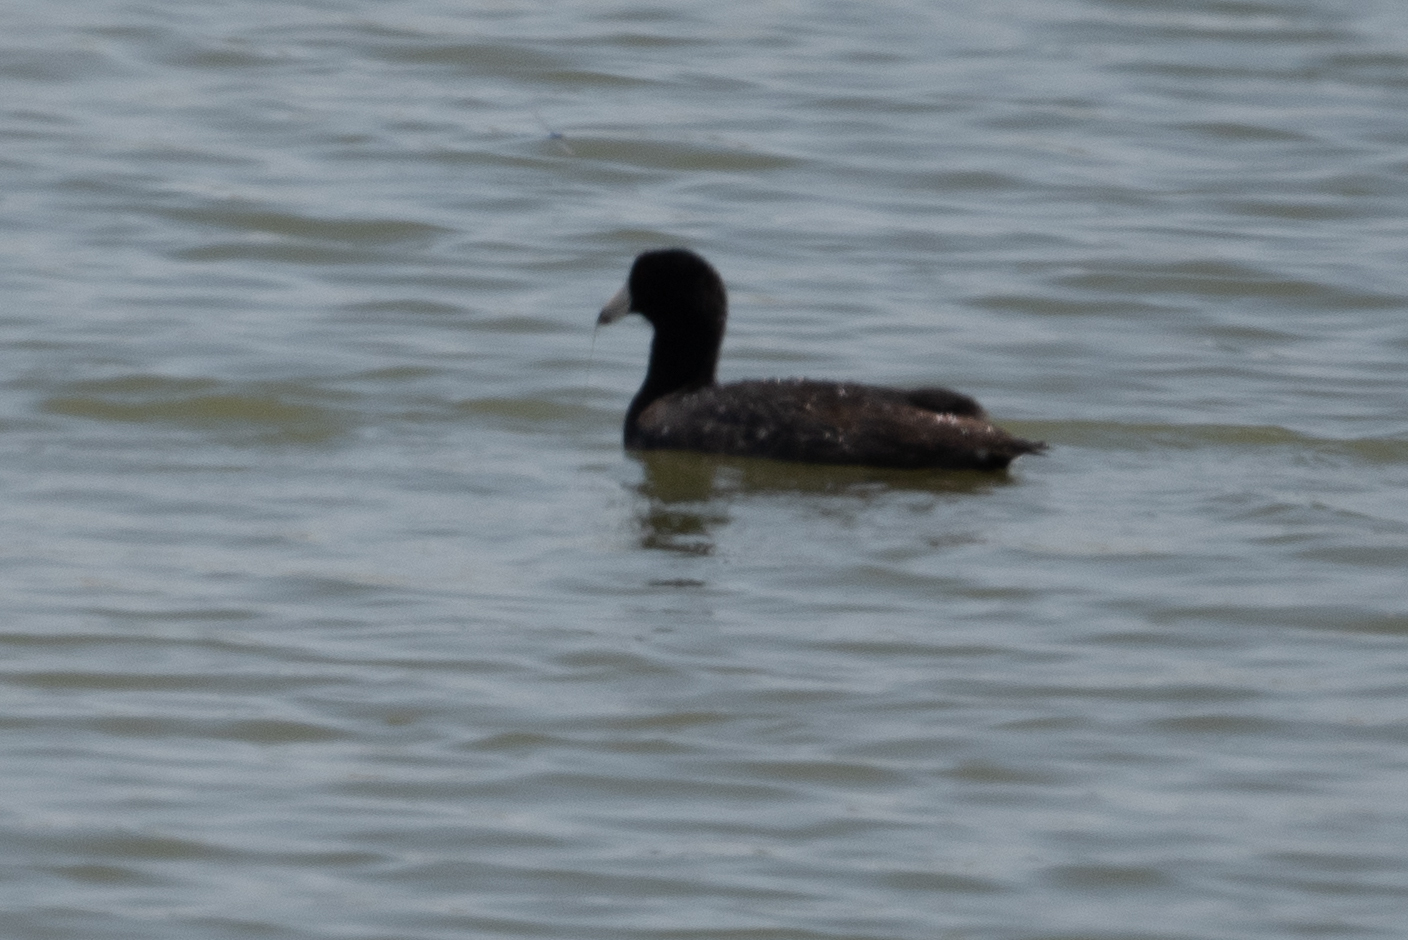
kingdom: Animalia
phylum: Chordata
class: Aves
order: Gruiformes
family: Rallidae
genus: Fulica
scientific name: Fulica americana
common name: American coot
